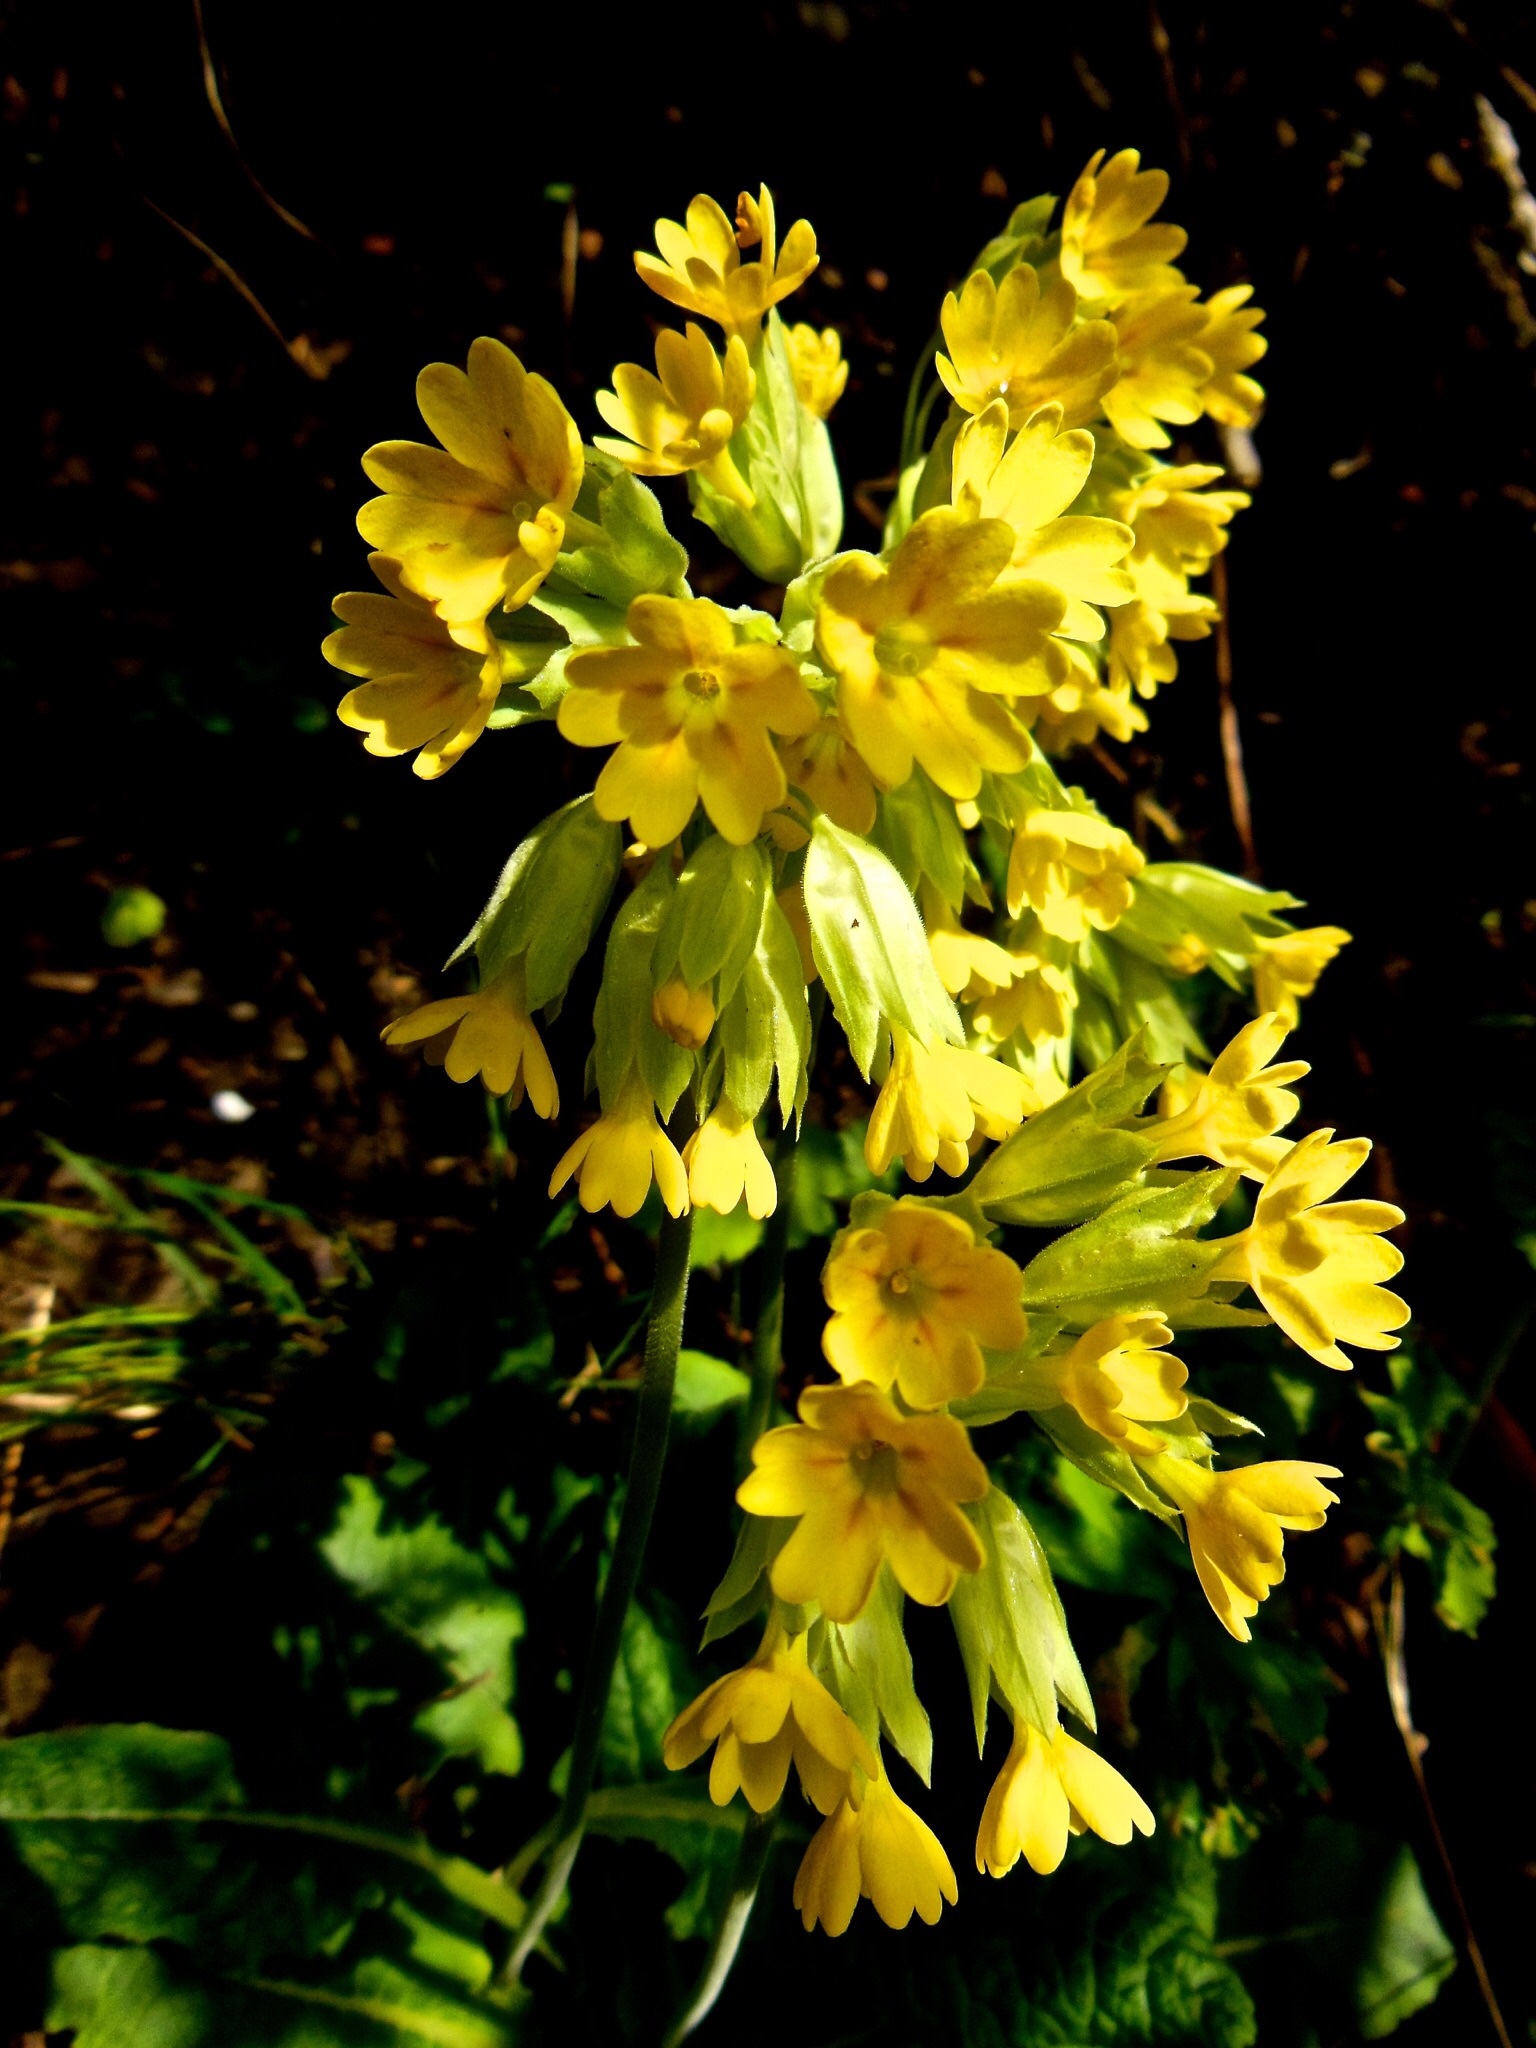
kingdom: Plantae
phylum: Tracheophyta
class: Magnoliopsida
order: Ericales
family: Primulaceae
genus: Primula
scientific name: Primula veris
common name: Cowslip
